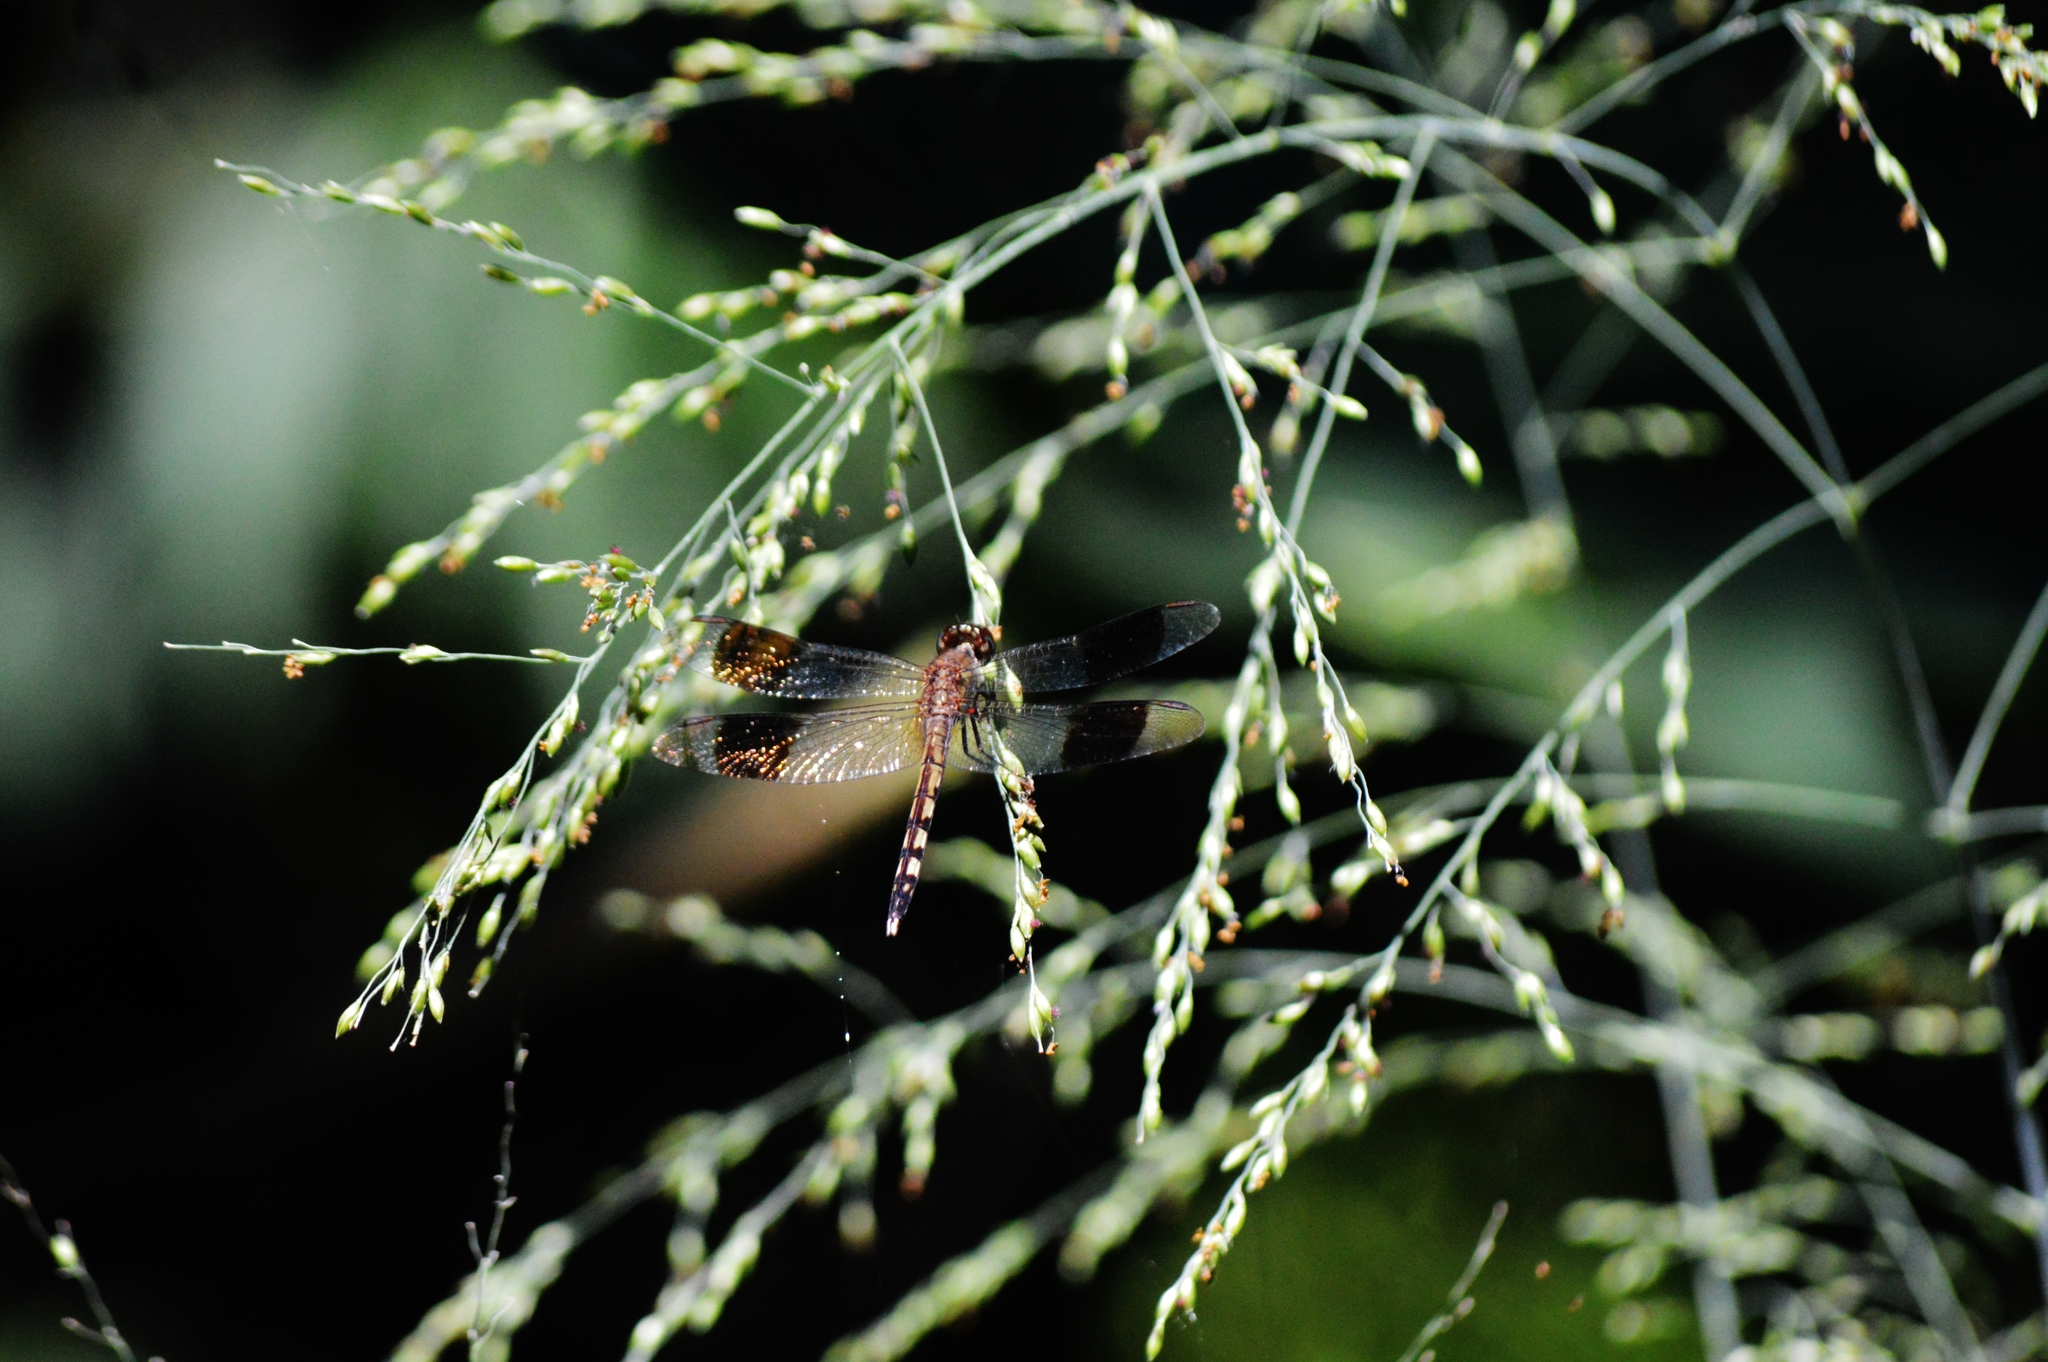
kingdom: Animalia
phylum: Arthropoda
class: Insecta
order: Odonata
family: Libellulidae
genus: Erythrodiplax
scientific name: Erythrodiplax umbrata
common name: Band-winged dragonlet
